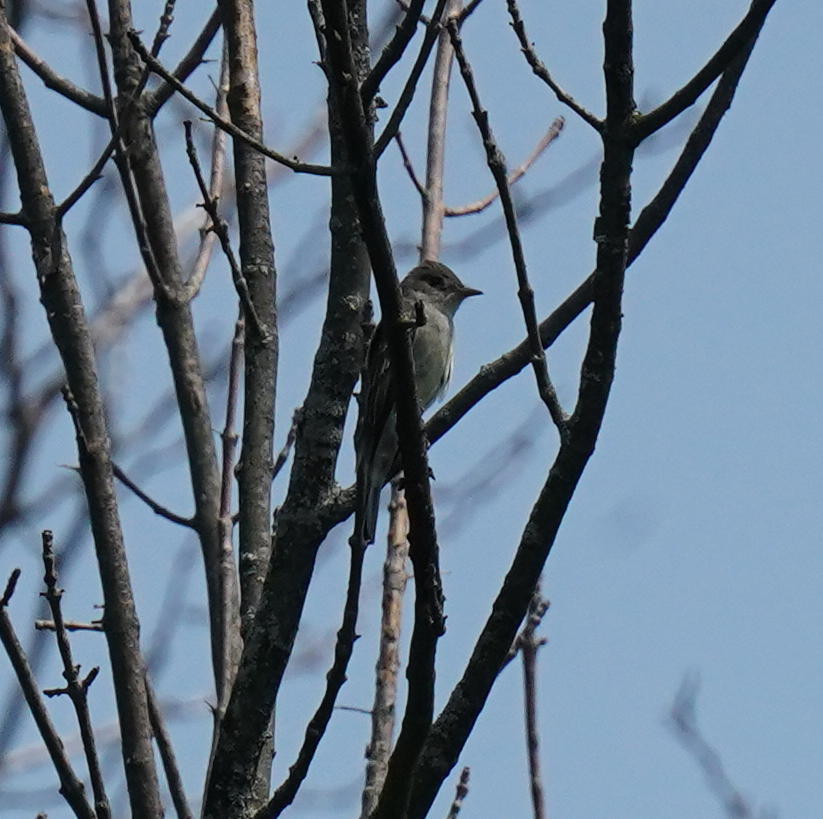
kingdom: Animalia
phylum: Chordata
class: Aves
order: Passeriformes
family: Tyrannidae
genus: Contopus
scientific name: Contopus virens
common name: Eastern wood-pewee
